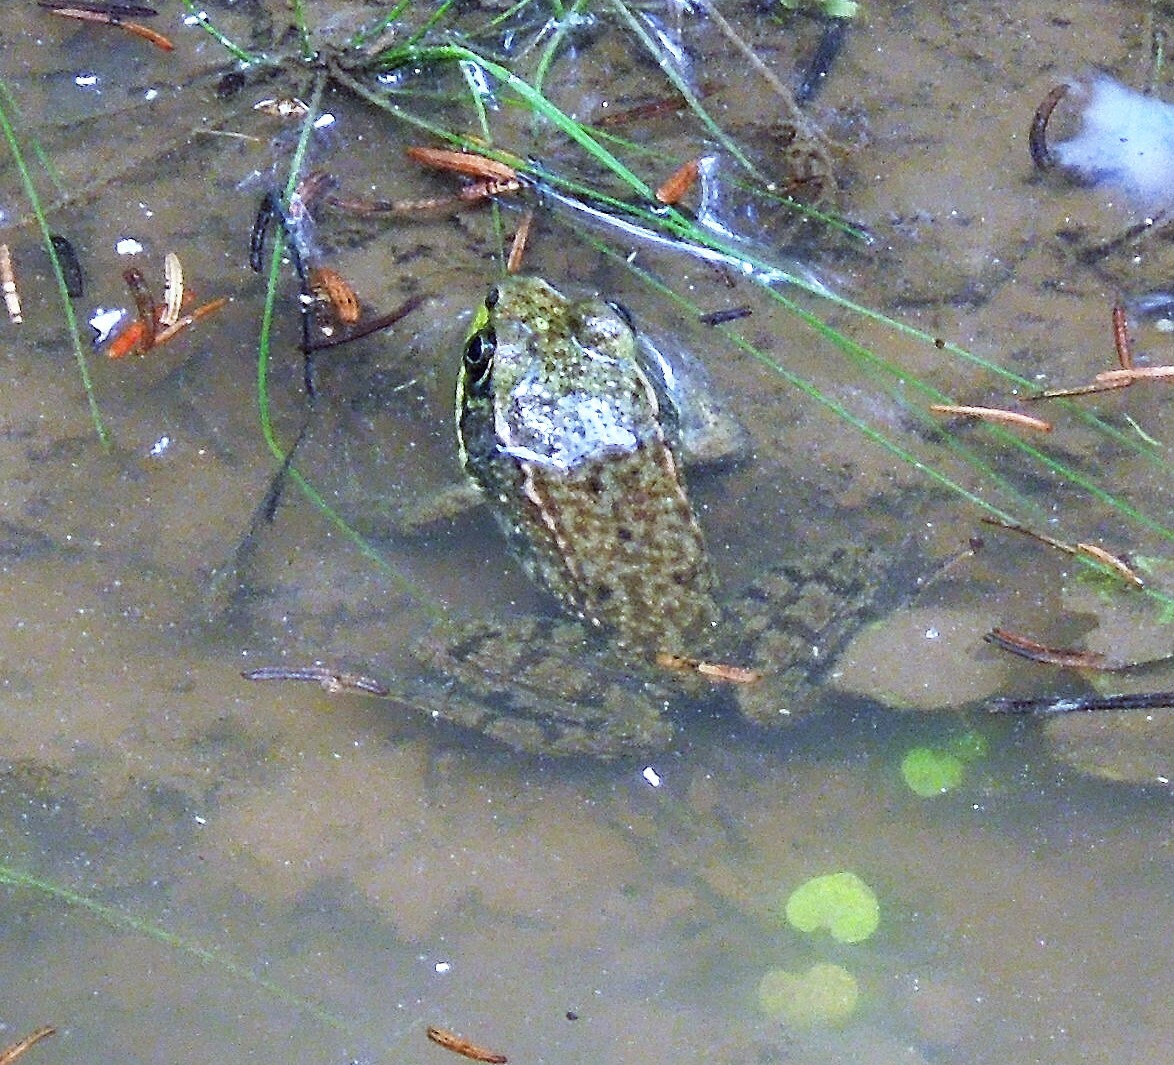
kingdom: Animalia
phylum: Chordata
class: Amphibia
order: Anura
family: Ranidae
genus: Lithobates
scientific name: Lithobates clamitans
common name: Green frog
